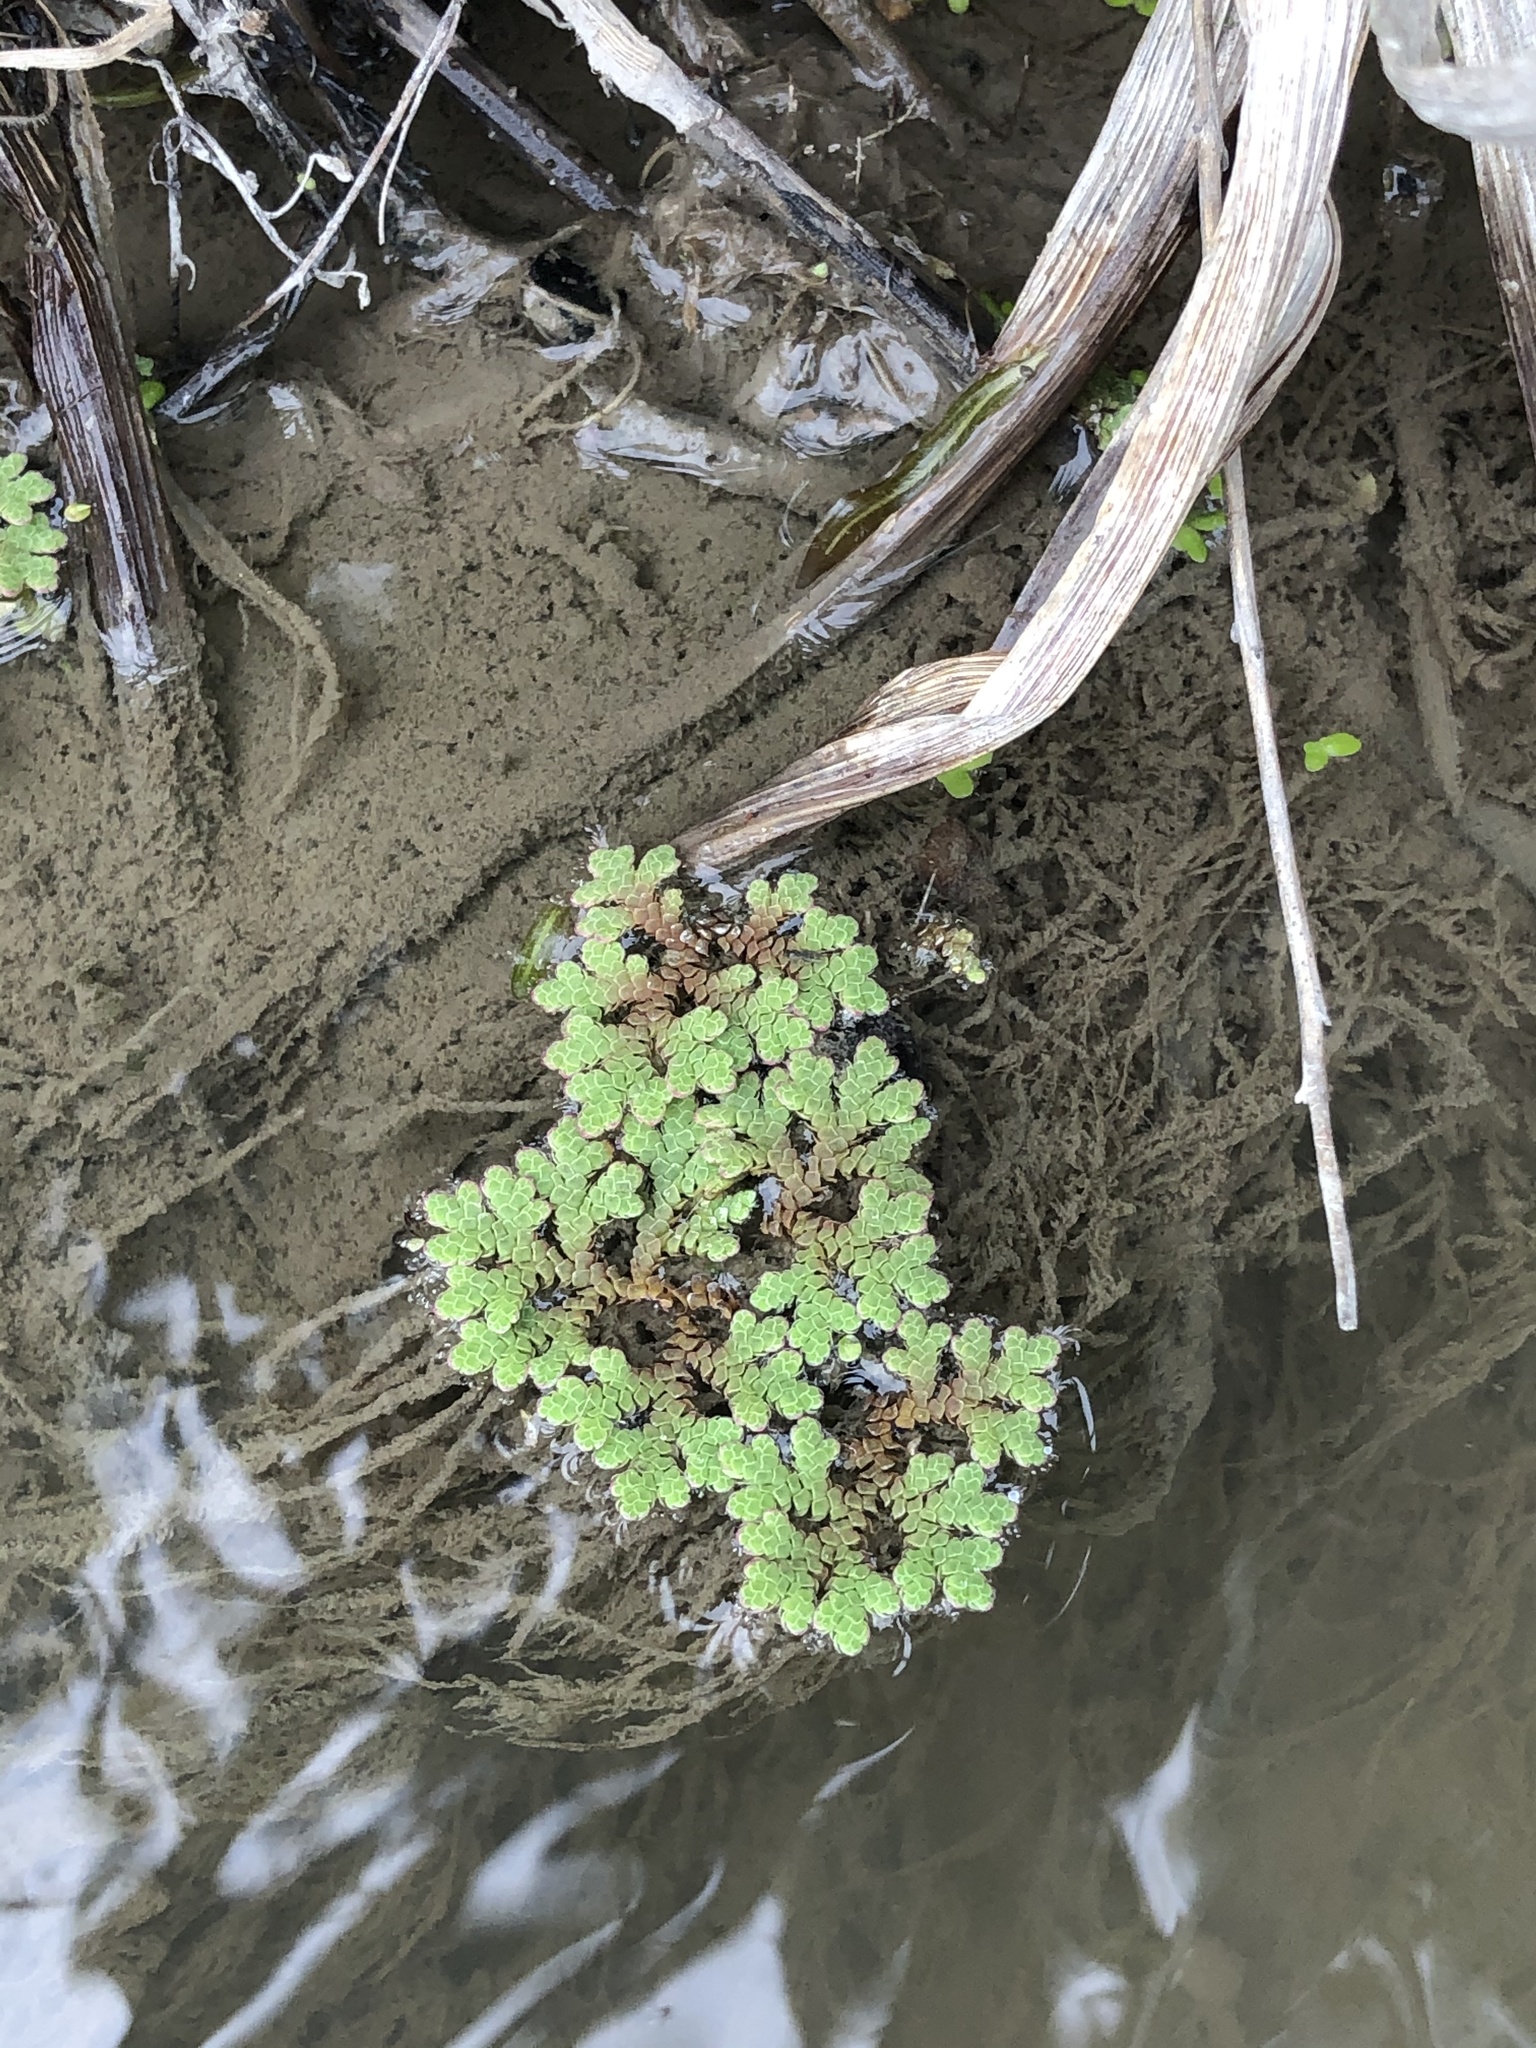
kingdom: Plantae
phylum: Tracheophyta
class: Polypodiopsida
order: Salviniales
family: Salviniaceae
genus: Azolla
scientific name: Azolla rubra
